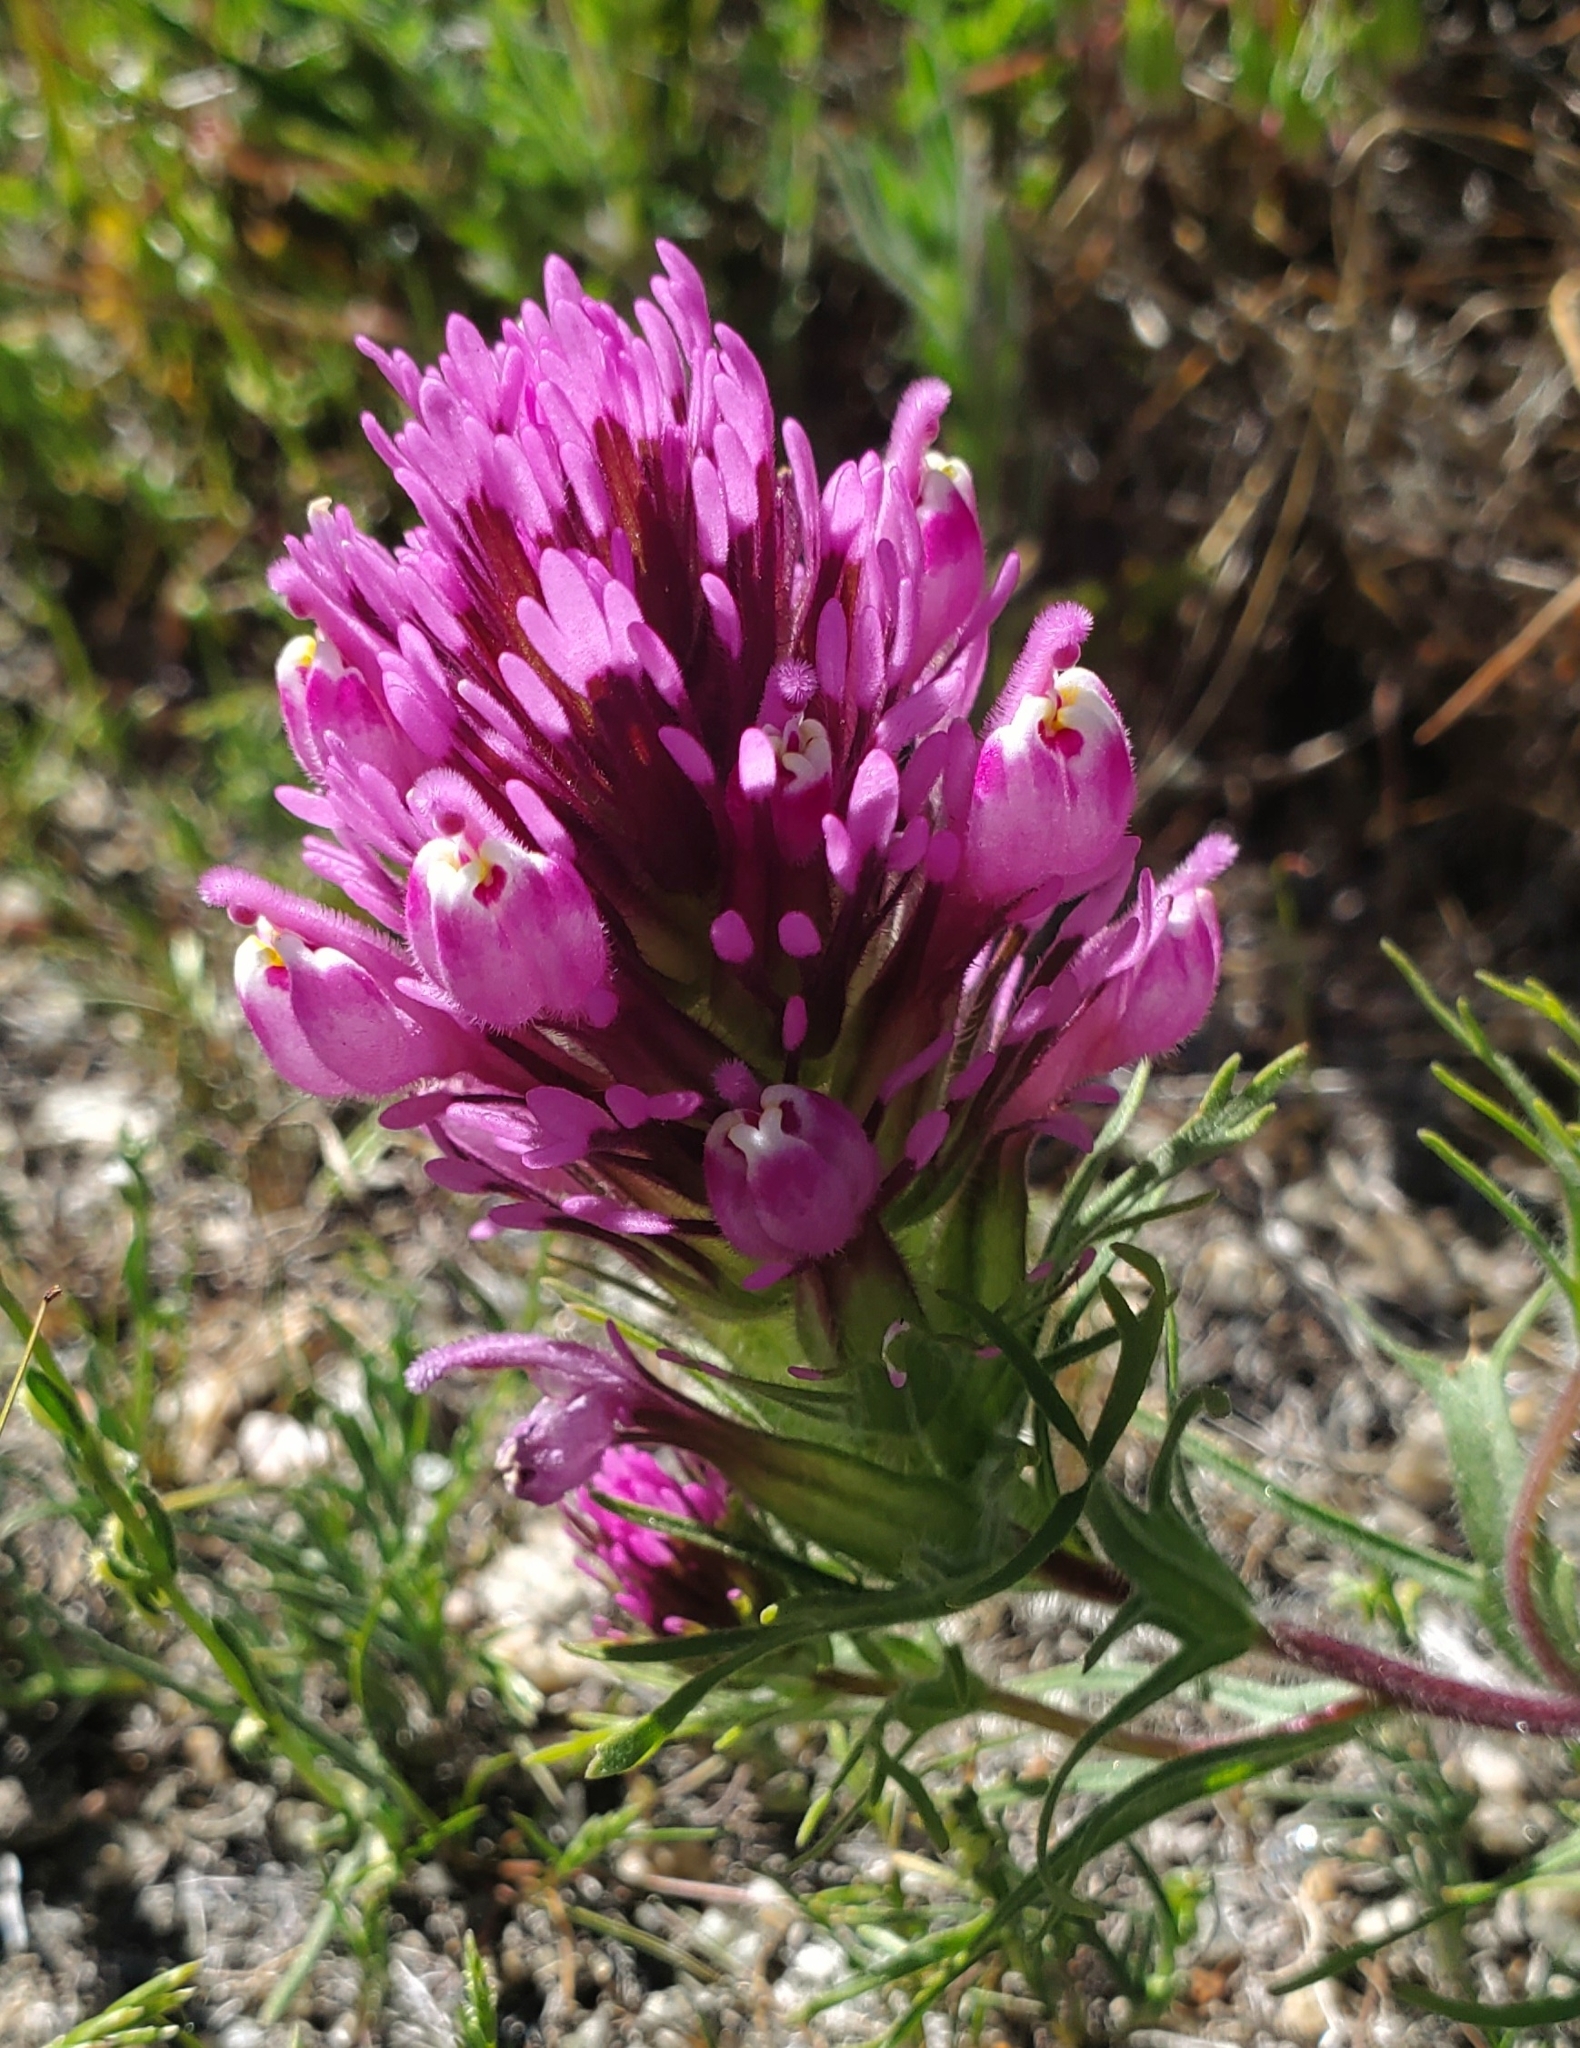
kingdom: Plantae
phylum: Tracheophyta
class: Magnoliopsida
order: Lamiales
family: Orobanchaceae
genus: Castilleja
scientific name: Castilleja exserta
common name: Purple owl-clover
